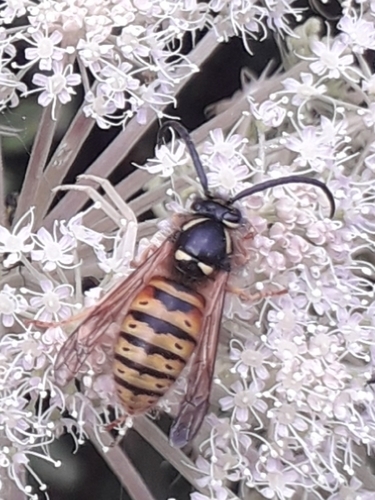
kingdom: Animalia
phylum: Arthropoda
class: Insecta
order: Hymenoptera
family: Vespidae
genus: Dolichovespula
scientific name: Dolichovespula norwegica
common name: Norwegian wasp
